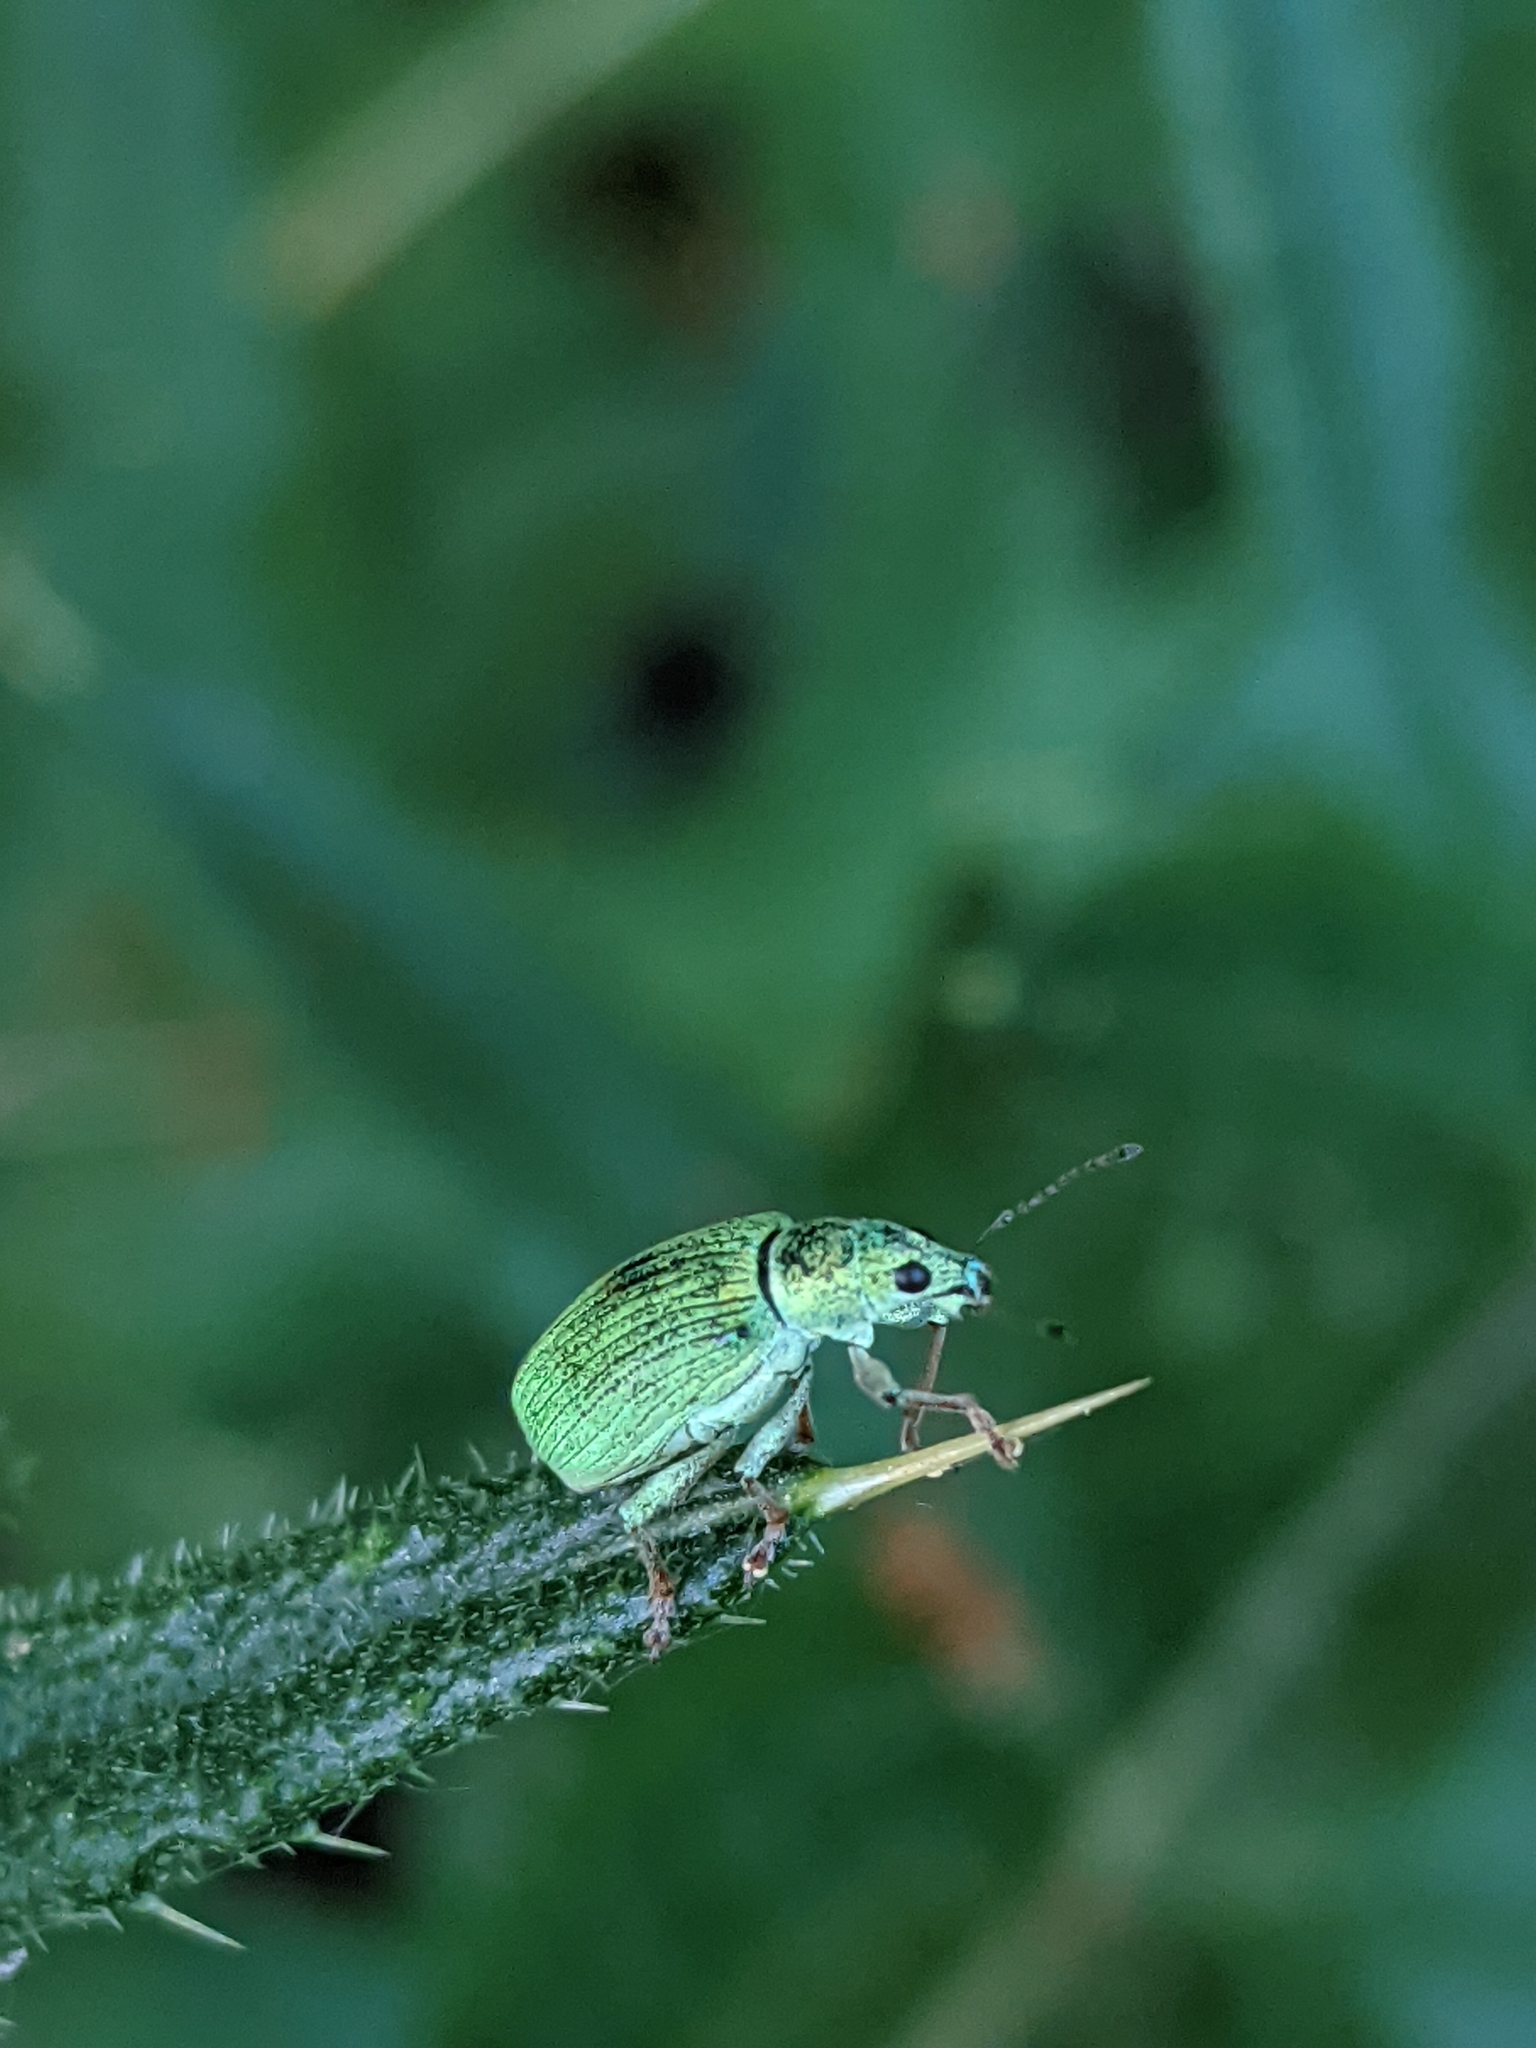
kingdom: Animalia
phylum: Arthropoda
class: Insecta
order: Coleoptera
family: Curculionidae
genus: Polydrusus
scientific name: Polydrusus formosus
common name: Weevil
